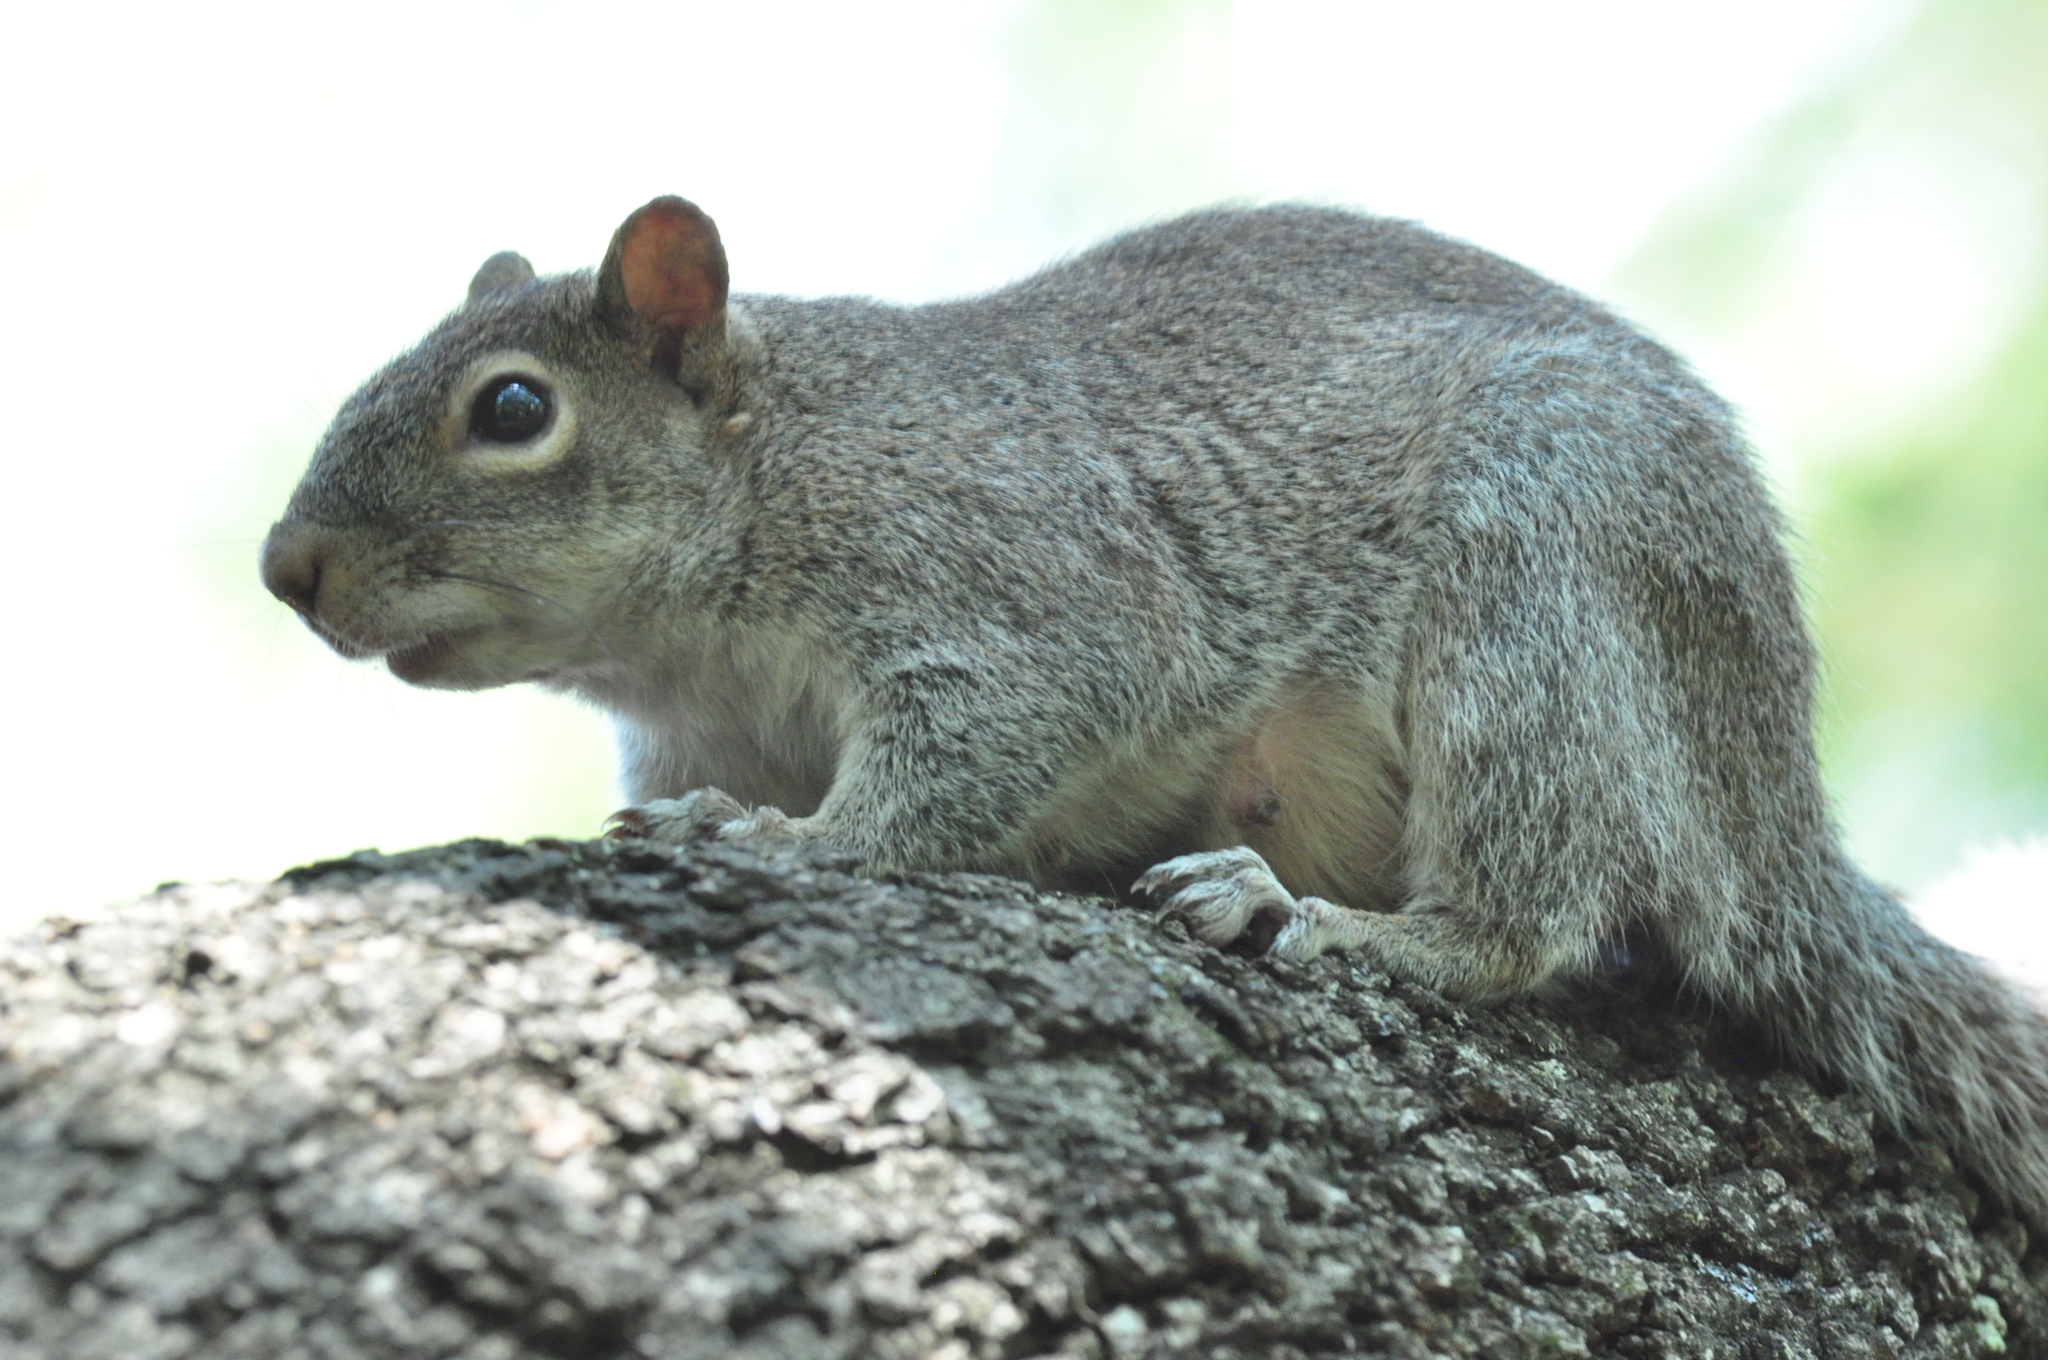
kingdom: Animalia
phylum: Chordata
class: Mammalia
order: Rodentia
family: Sciuridae
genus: Sciurus
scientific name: Sciurus alleni
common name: Allen's squirrel
